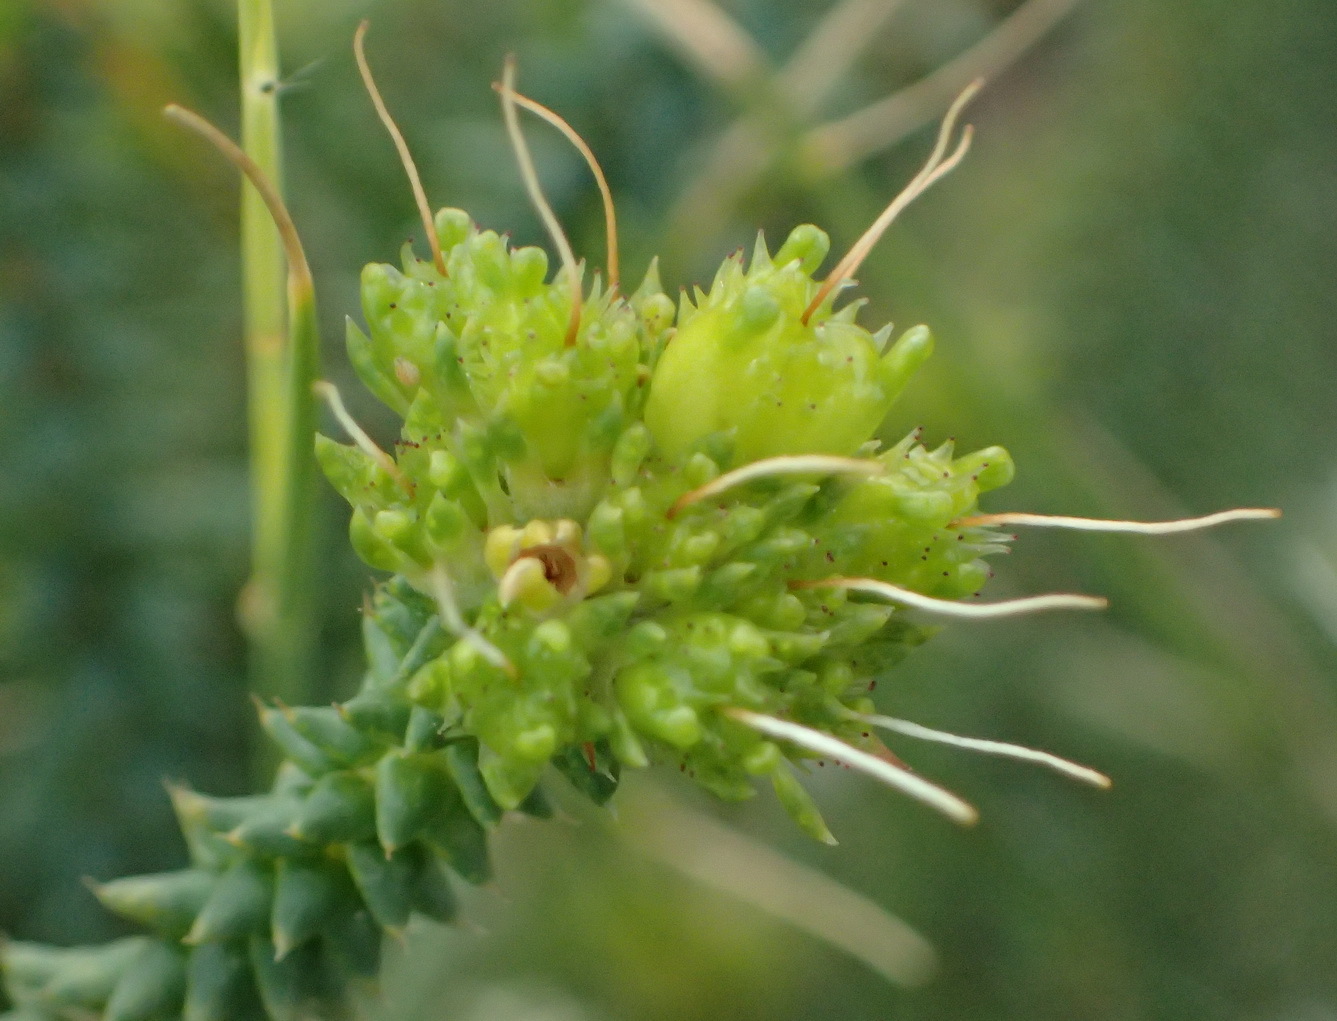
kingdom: Plantae
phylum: Tracheophyta
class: Magnoliopsida
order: Sapindales
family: Rutaceae
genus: Agathosma
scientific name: Agathosma apiculata
